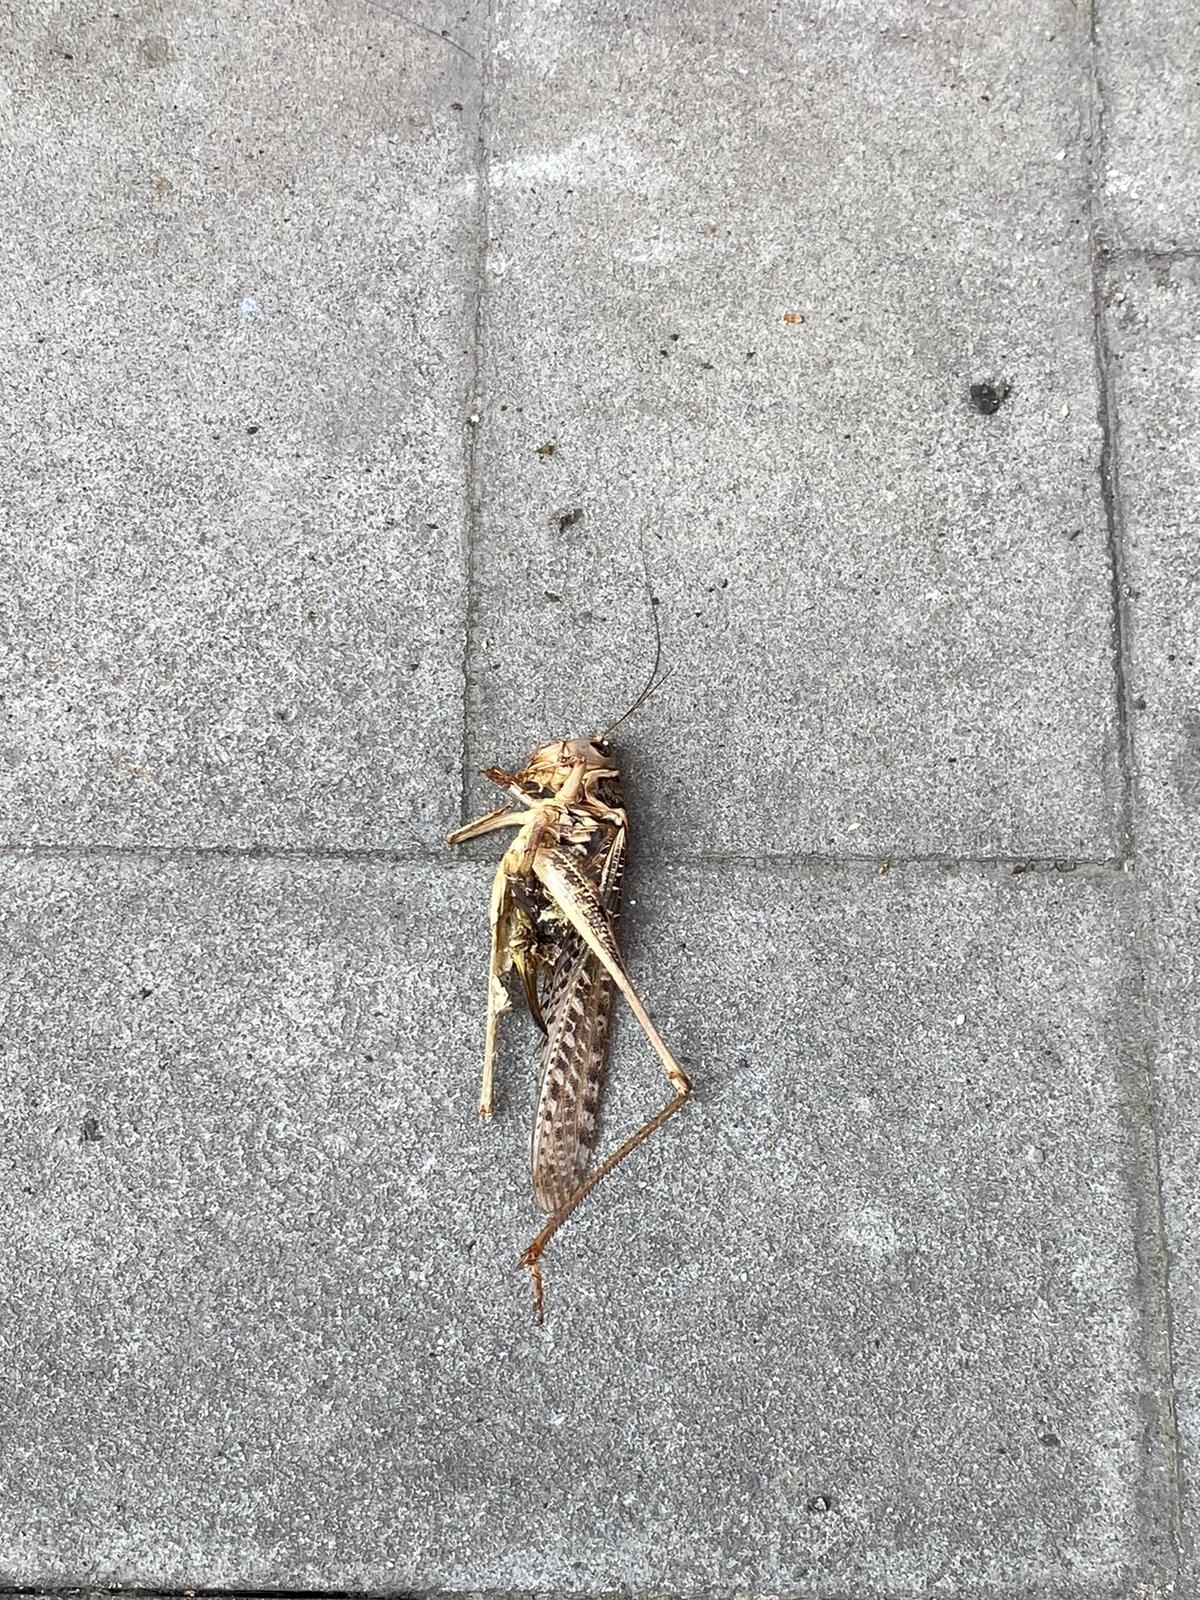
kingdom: Animalia
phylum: Arthropoda
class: Insecta
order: Orthoptera
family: Tettigoniidae
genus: Decticus
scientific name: Decticus albifrons
